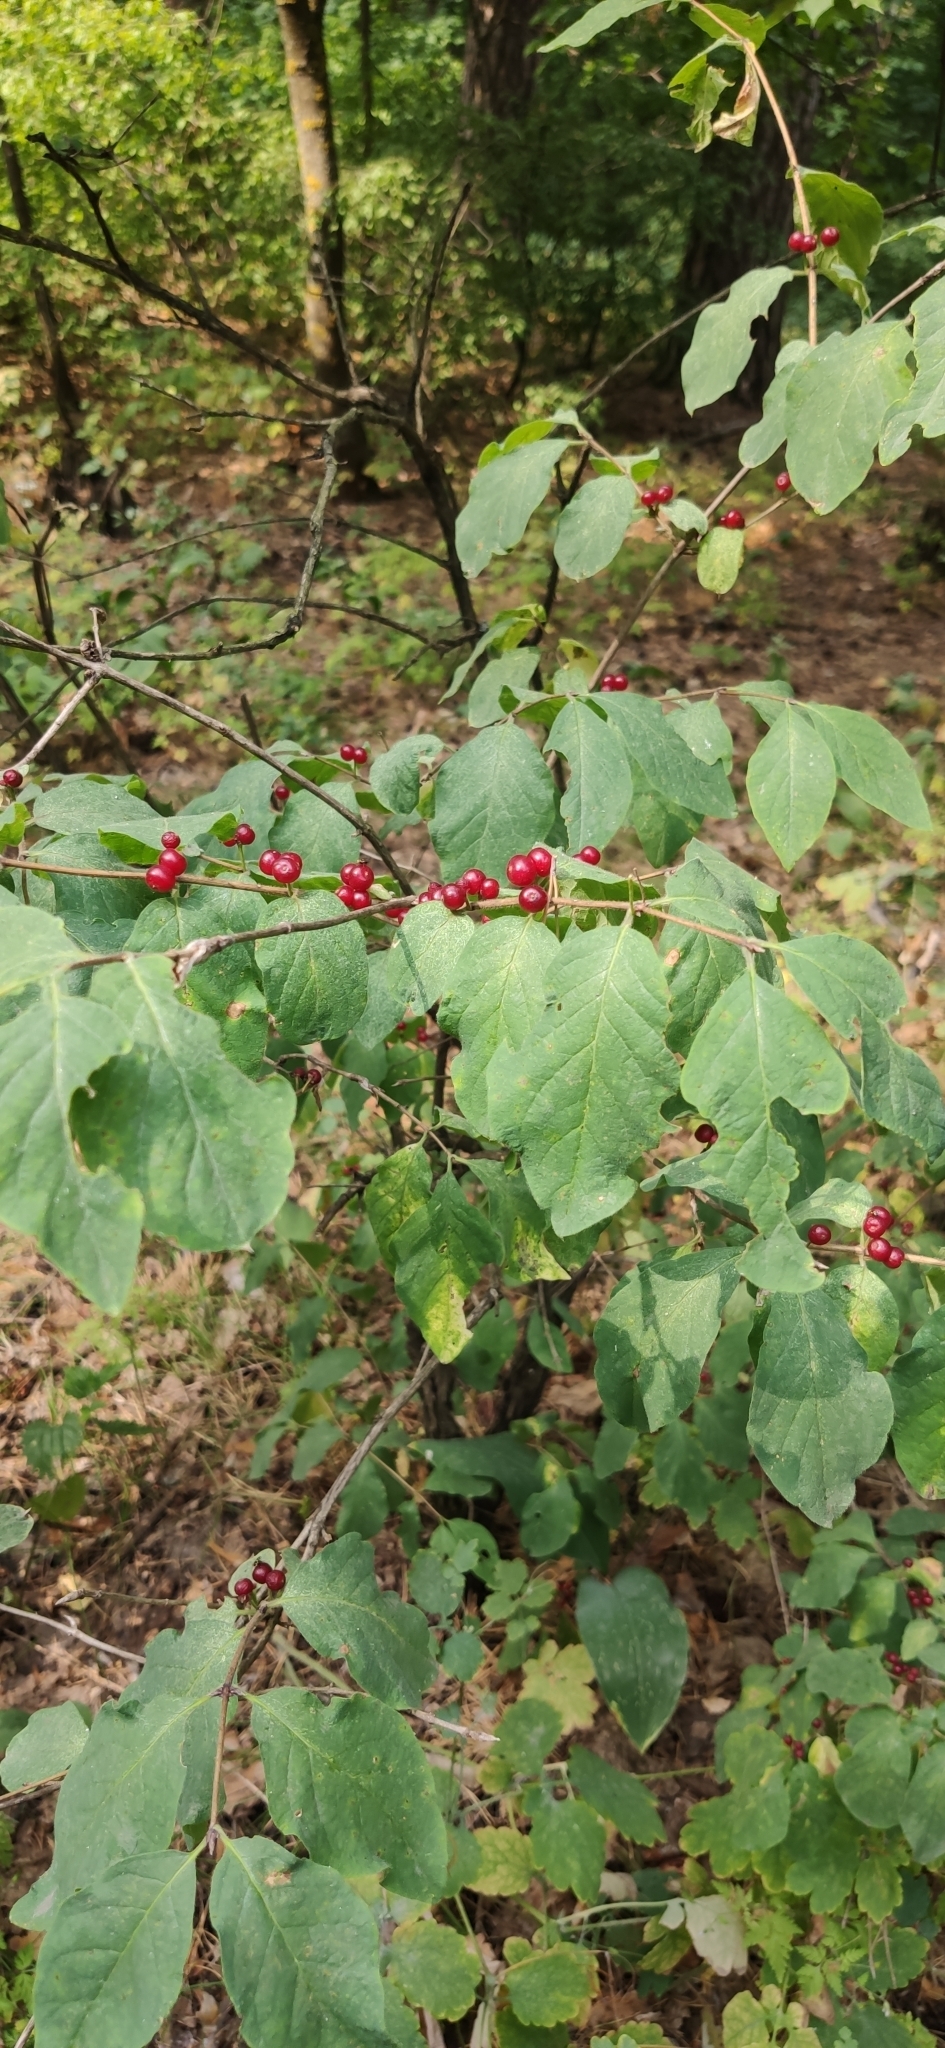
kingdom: Plantae
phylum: Tracheophyta
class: Magnoliopsida
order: Dipsacales
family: Caprifoliaceae
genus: Lonicera
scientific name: Lonicera xylosteum
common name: Fly honeysuckle
